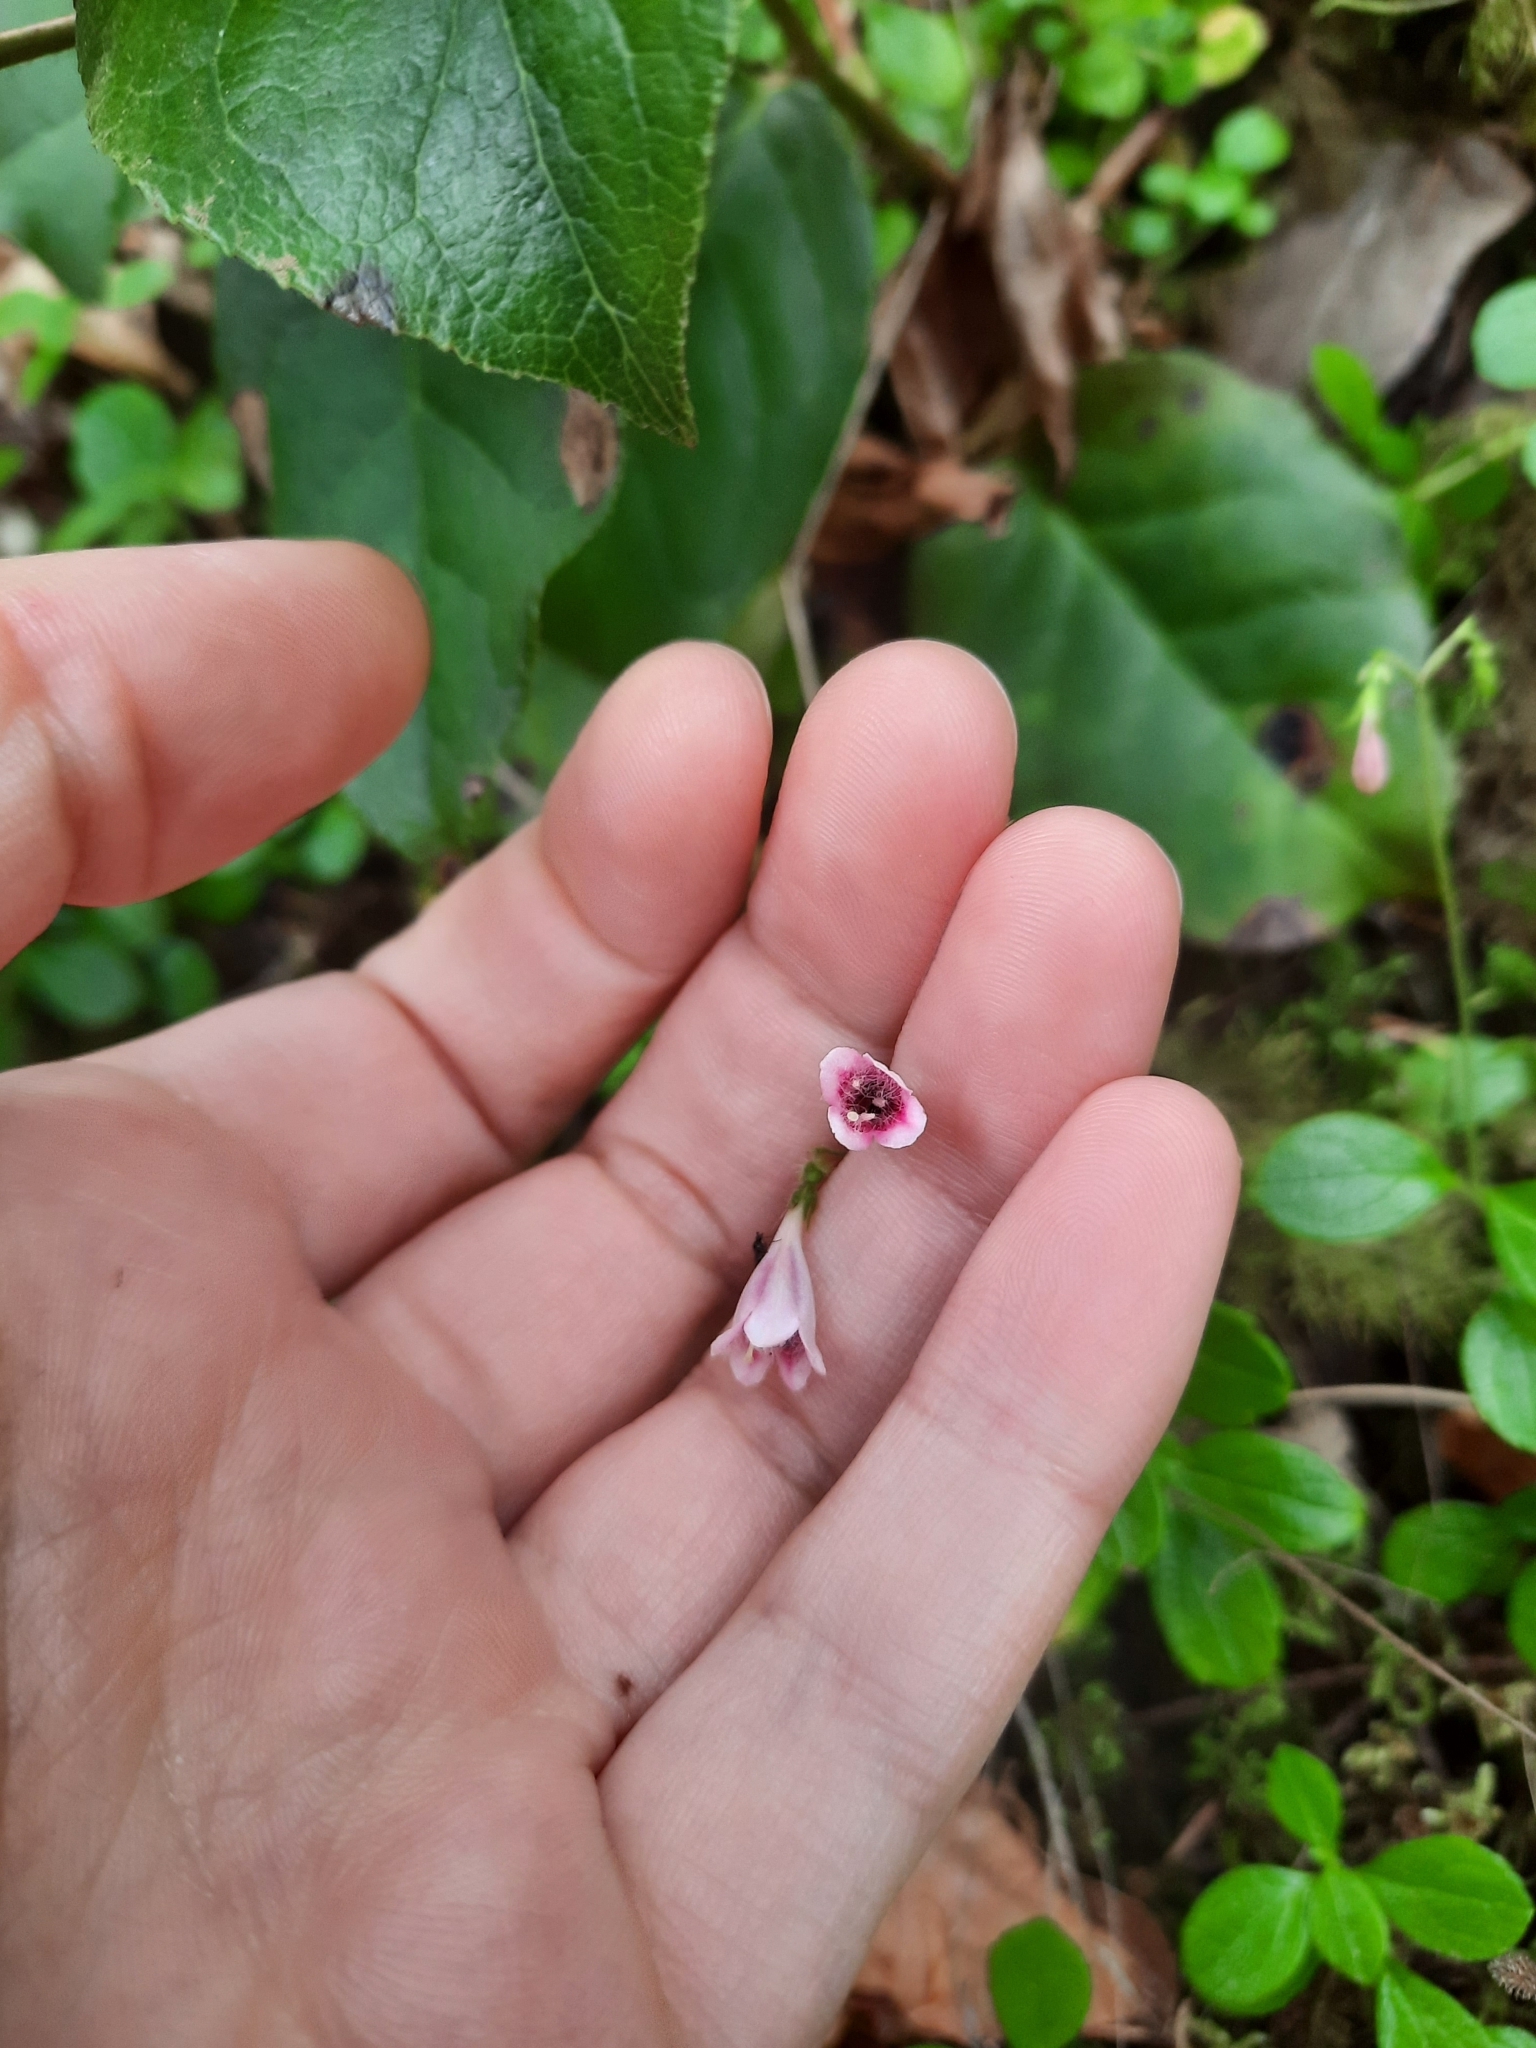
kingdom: Plantae
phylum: Tracheophyta
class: Magnoliopsida
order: Dipsacales
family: Caprifoliaceae
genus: Linnaea
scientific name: Linnaea borealis
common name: Twinflower
